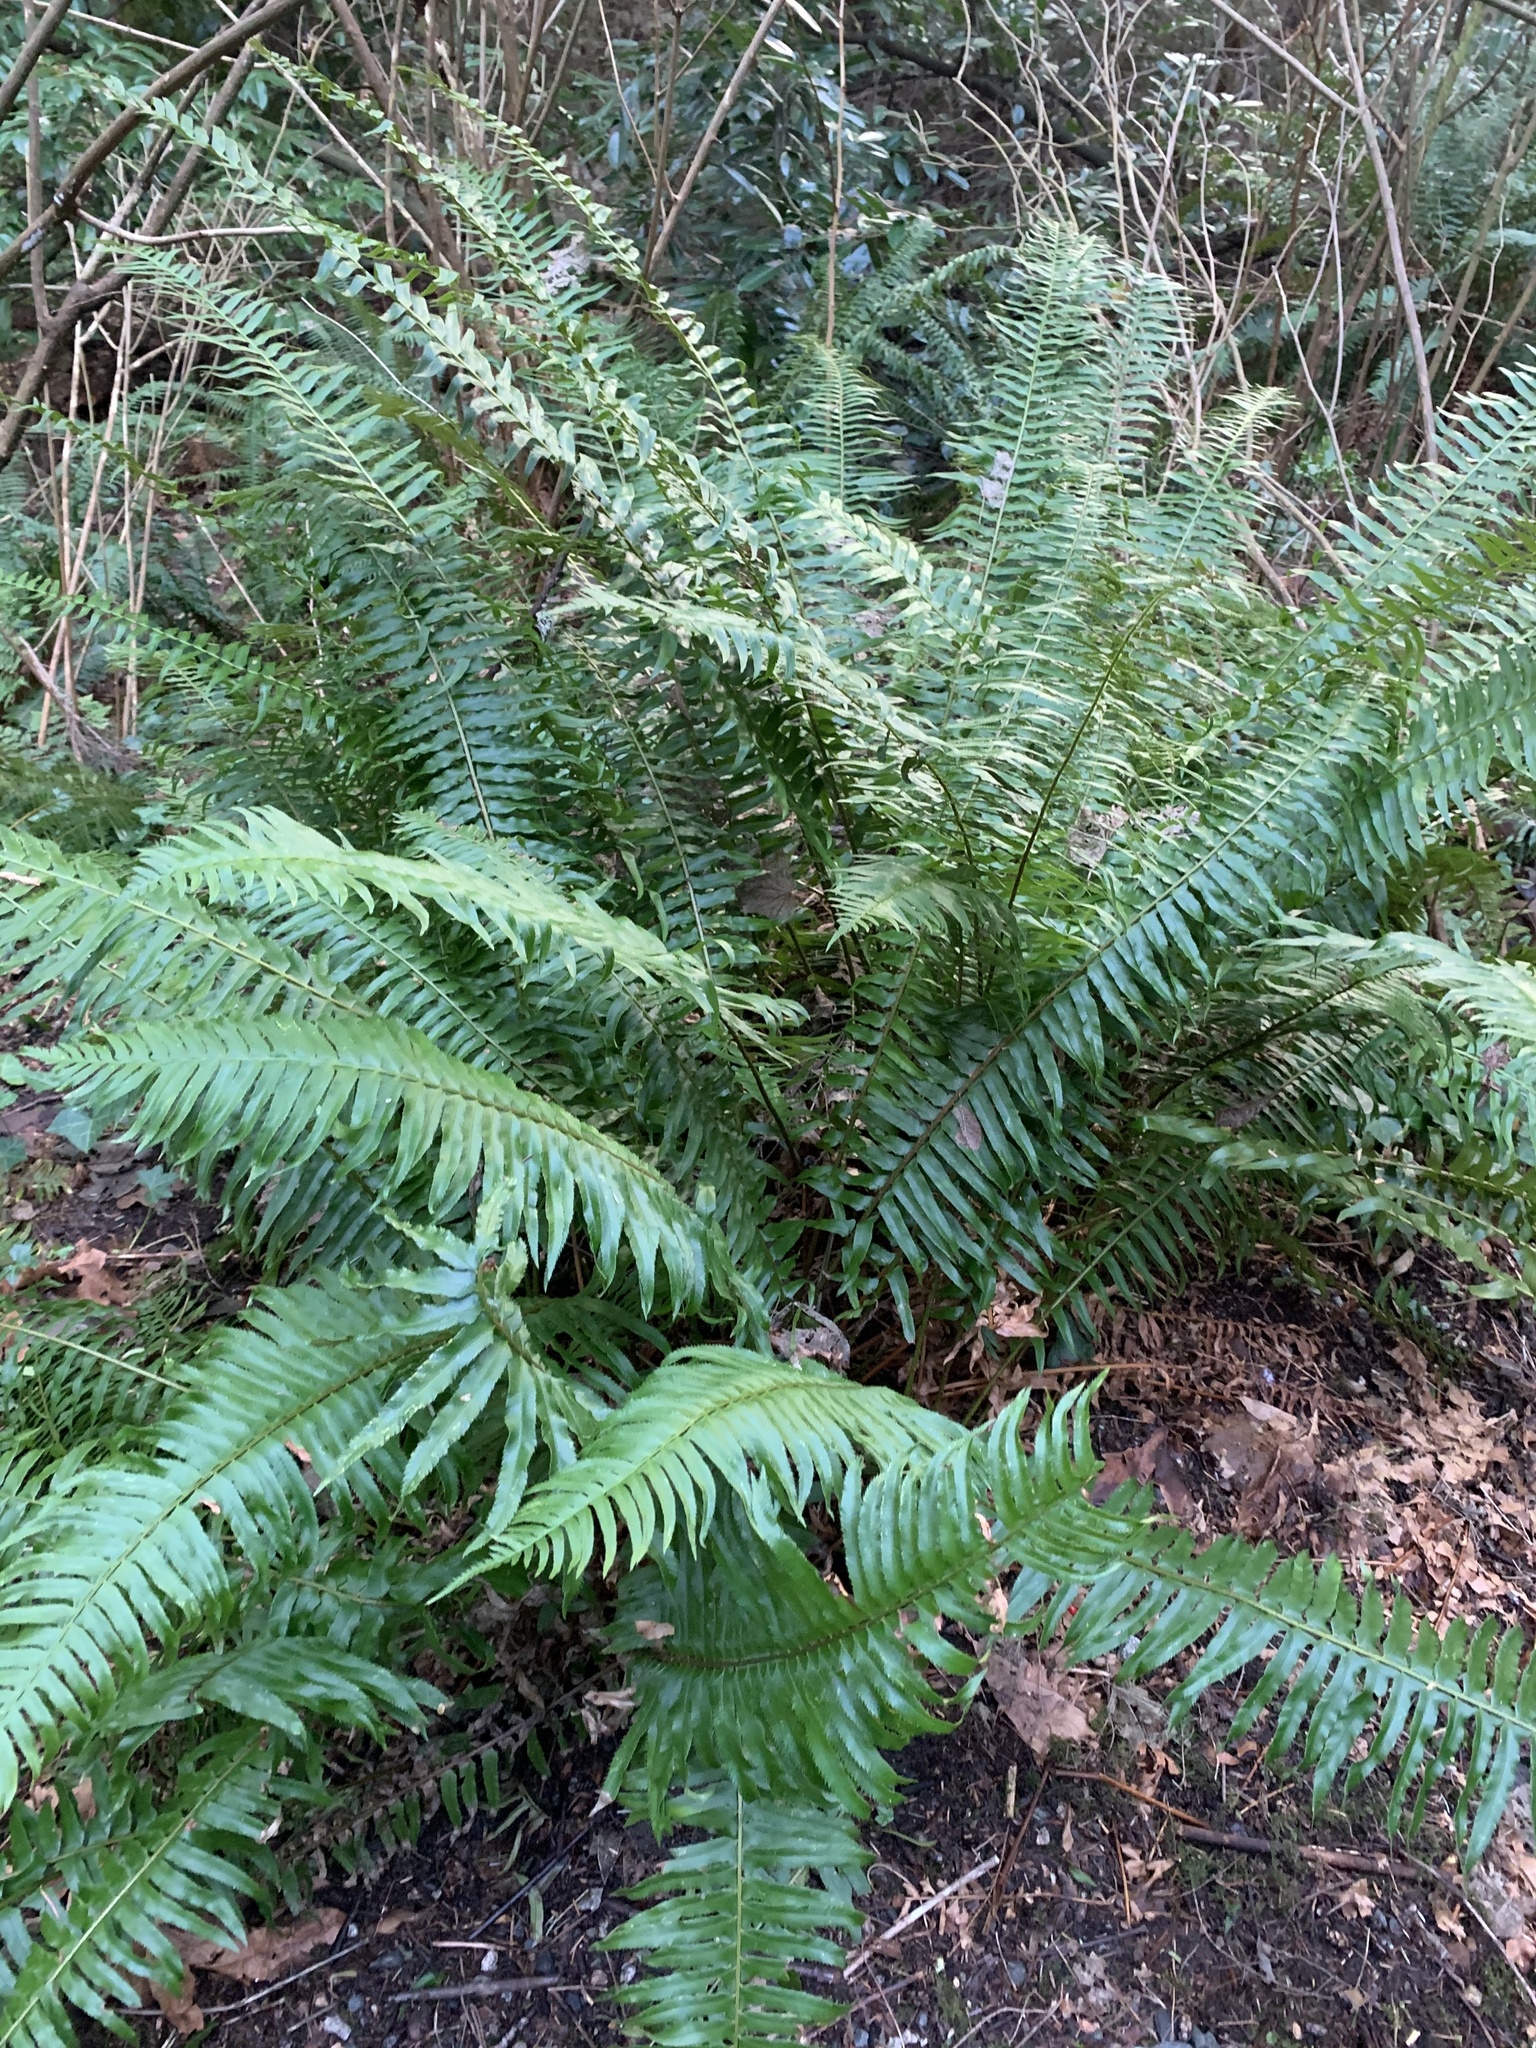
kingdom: Plantae
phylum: Tracheophyta
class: Polypodiopsida
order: Polypodiales
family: Dryopteridaceae
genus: Polystichum
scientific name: Polystichum munitum
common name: Western sword-fern
